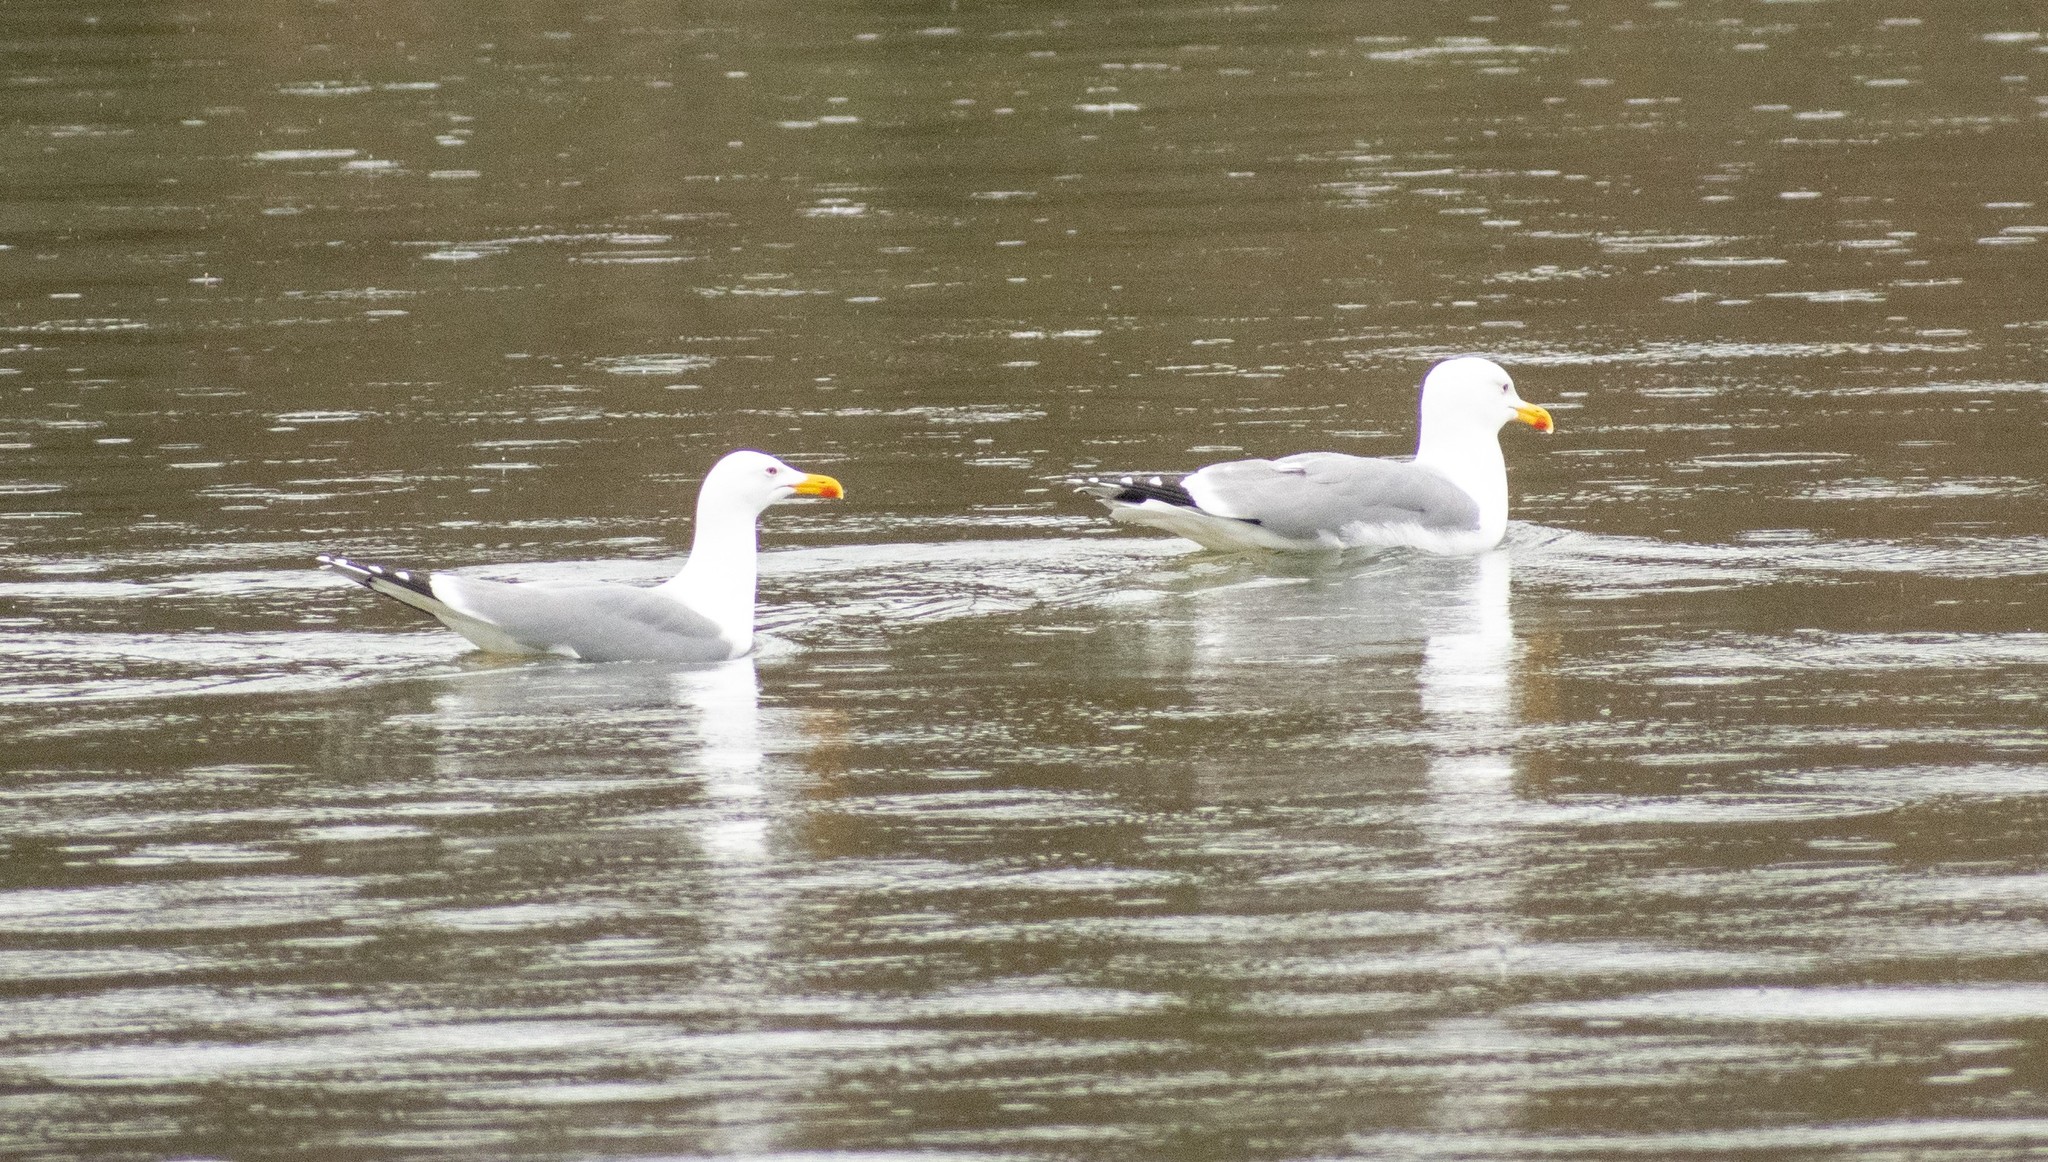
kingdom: Animalia
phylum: Chordata
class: Aves
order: Charadriiformes
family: Laridae
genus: Larus
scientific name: Larus michahellis
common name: Yellow-legged gull
